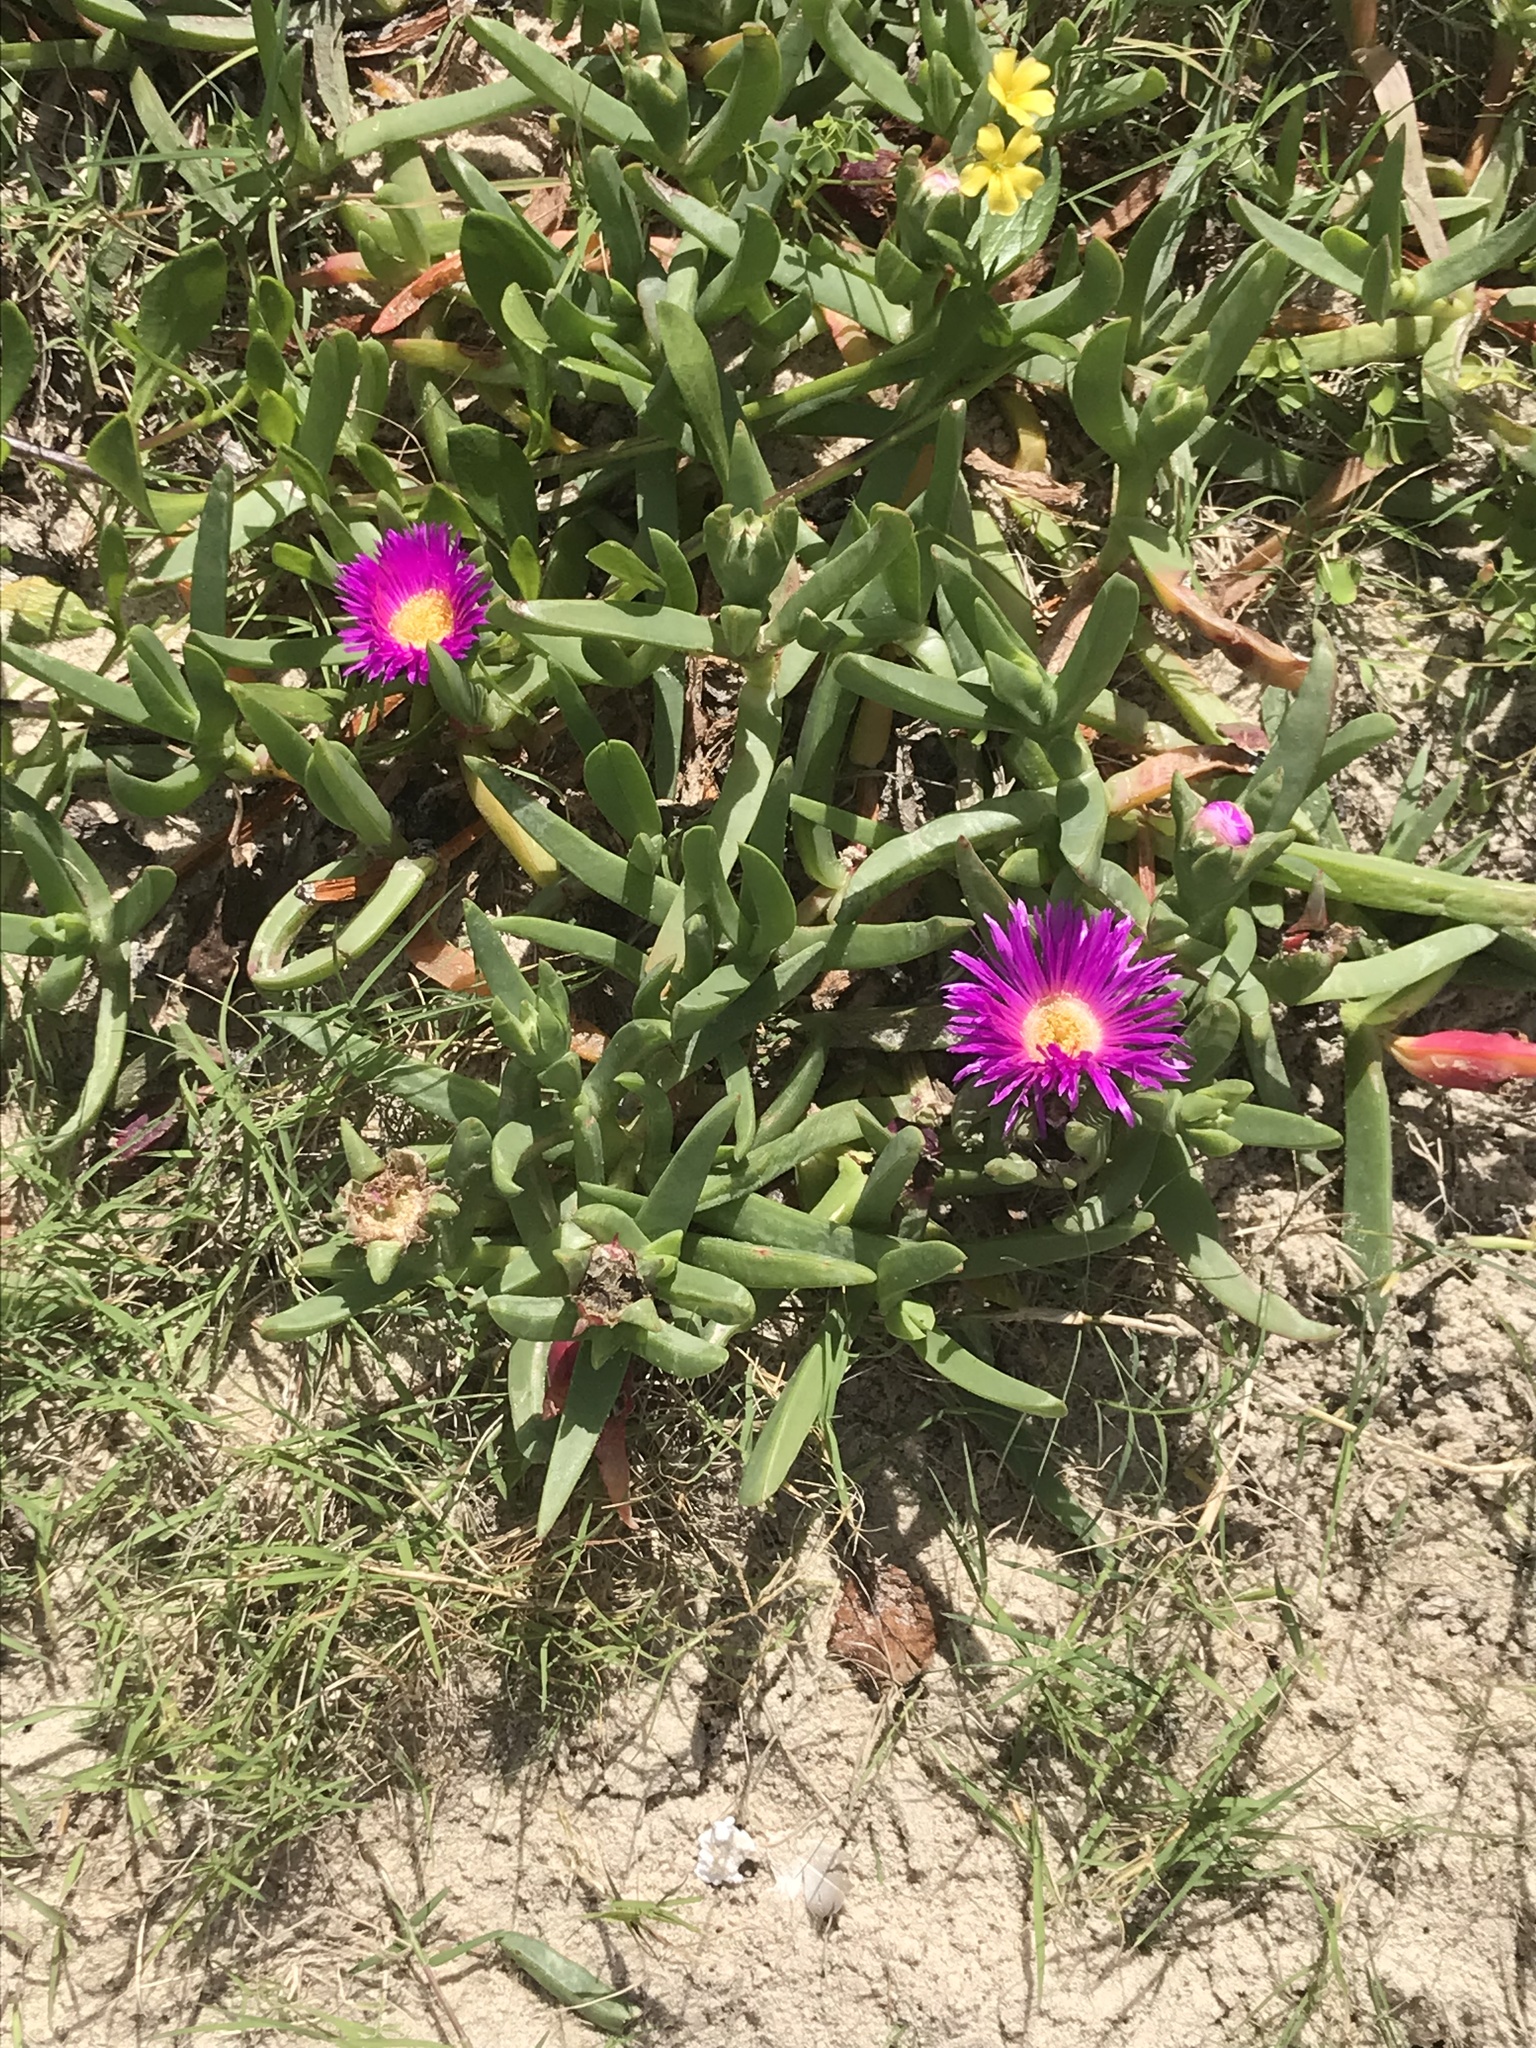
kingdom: Plantae
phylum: Tracheophyta
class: Magnoliopsida
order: Caryophyllales
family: Aizoaceae
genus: Carpobrotus
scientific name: Carpobrotus glaucescens
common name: Angular sea-fig
